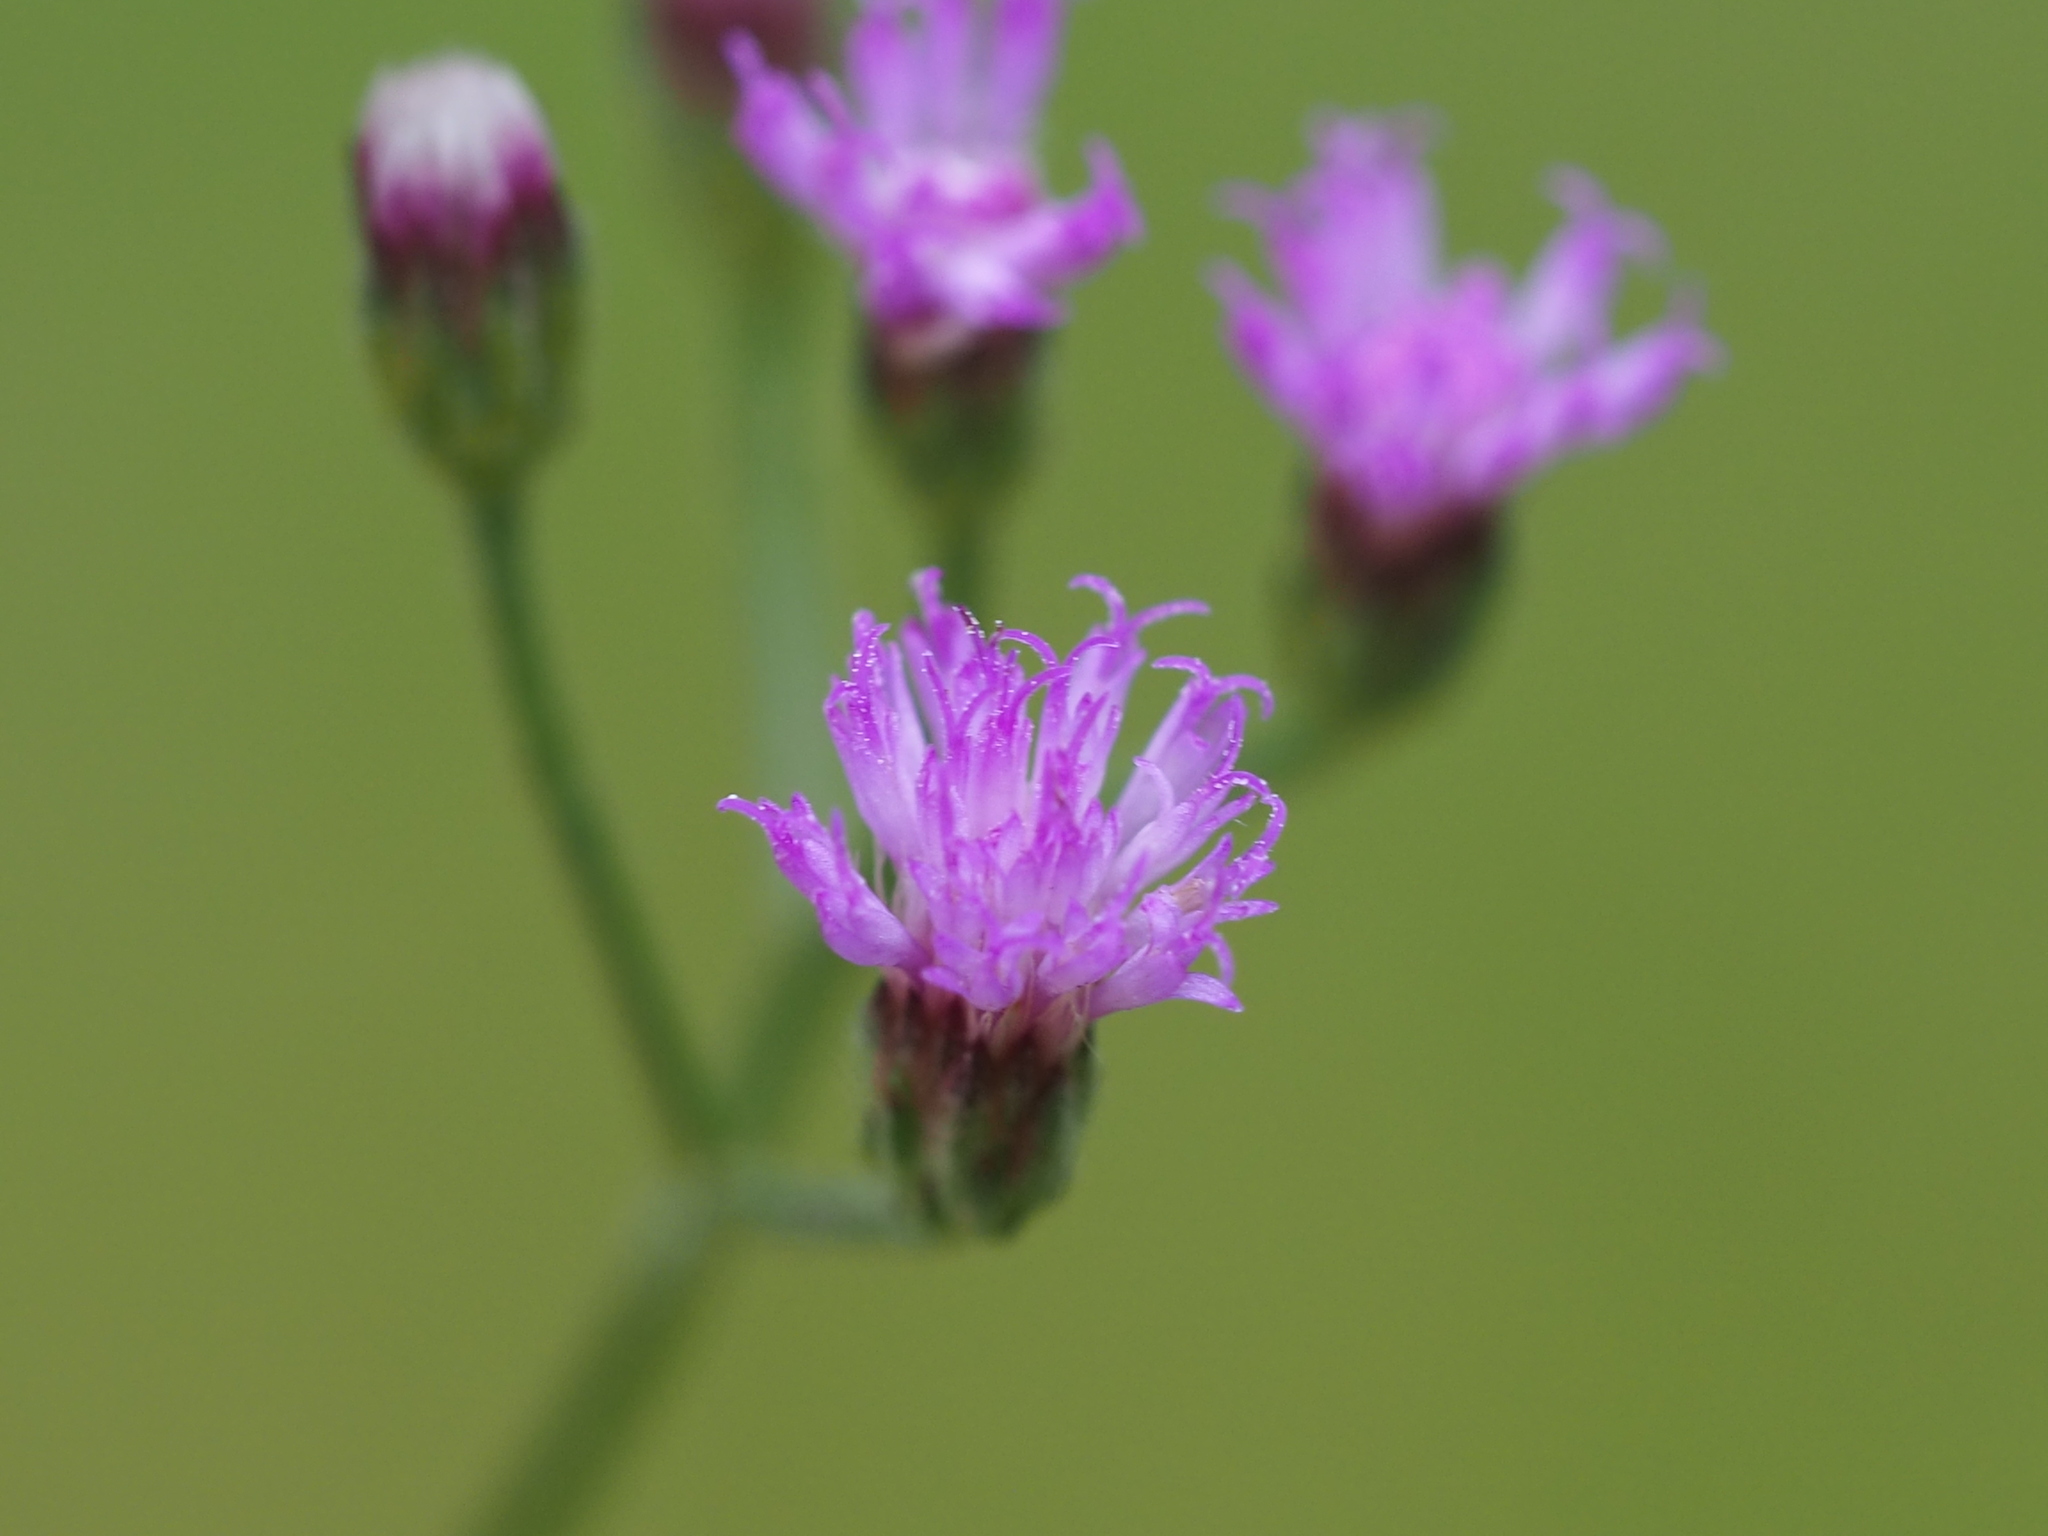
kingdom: Plantae
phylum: Tracheophyta
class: Magnoliopsida
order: Asterales
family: Asteraceae
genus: Cyanthillium
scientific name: Cyanthillium cinereum
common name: Little ironweed
